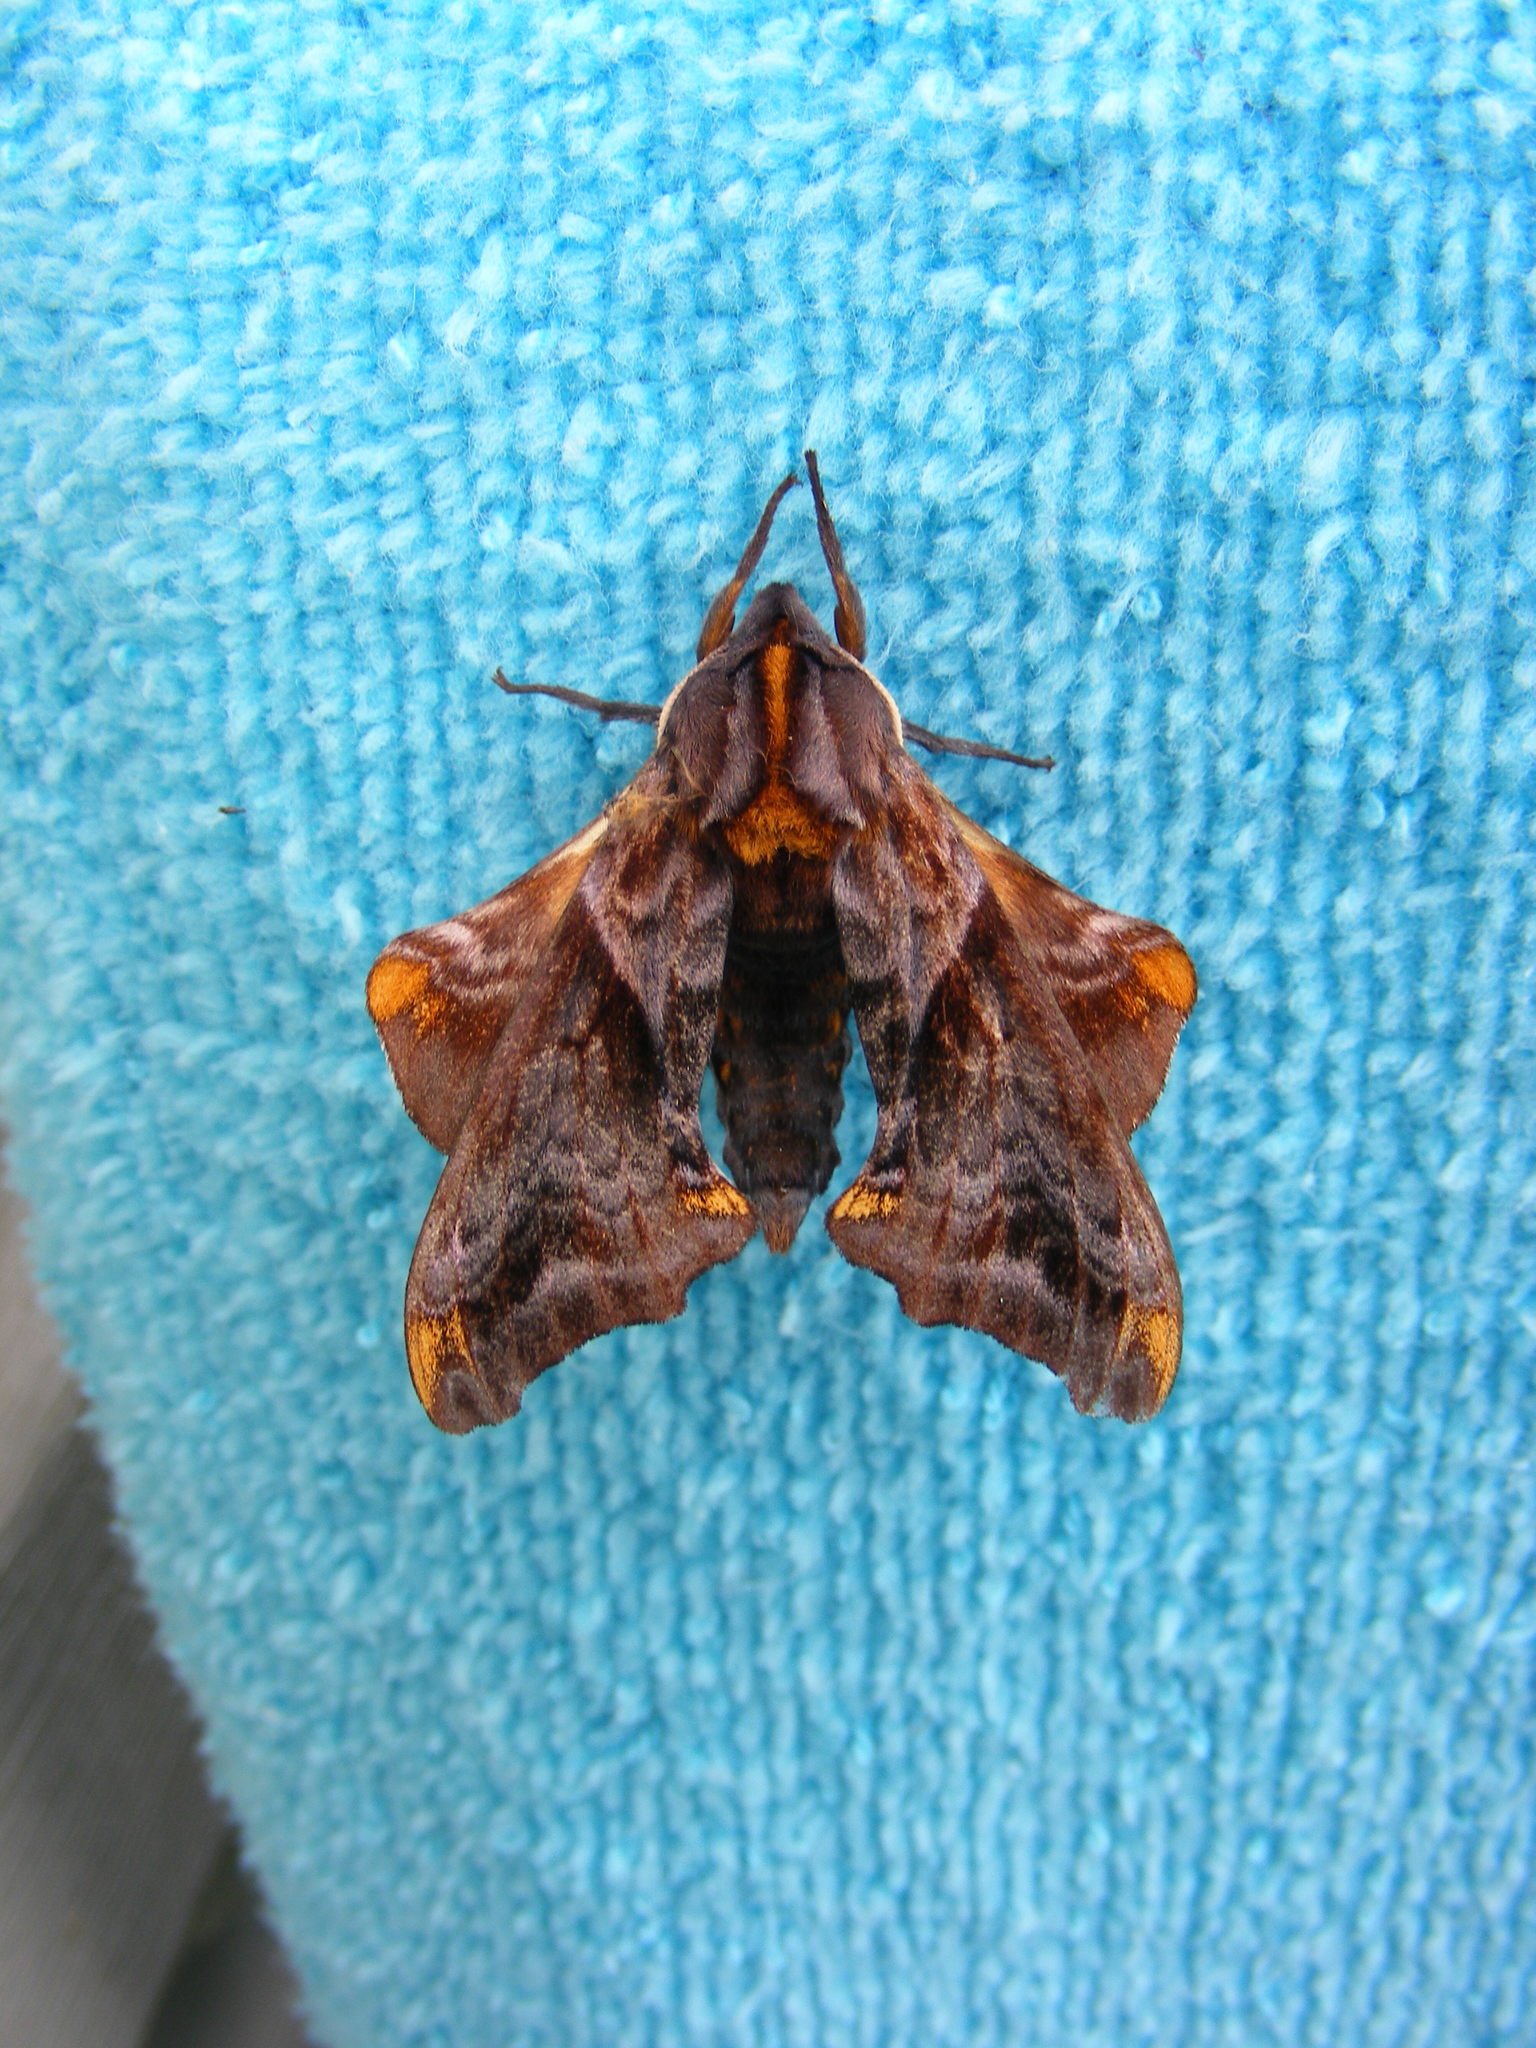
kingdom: Animalia
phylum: Arthropoda
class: Insecta
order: Lepidoptera
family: Sphingidae
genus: Paonias
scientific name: Paonias myops
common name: Small-eyed sphinx
